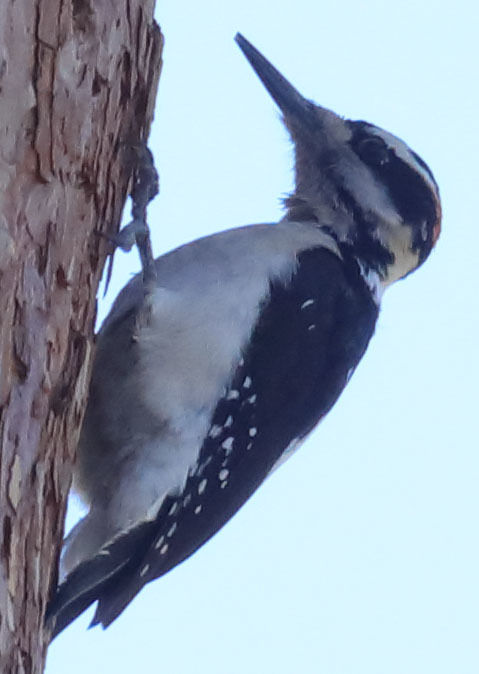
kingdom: Animalia
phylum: Chordata
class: Aves
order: Piciformes
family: Picidae
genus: Leuconotopicus
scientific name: Leuconotopicus villosus
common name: Hairy woodpecker
